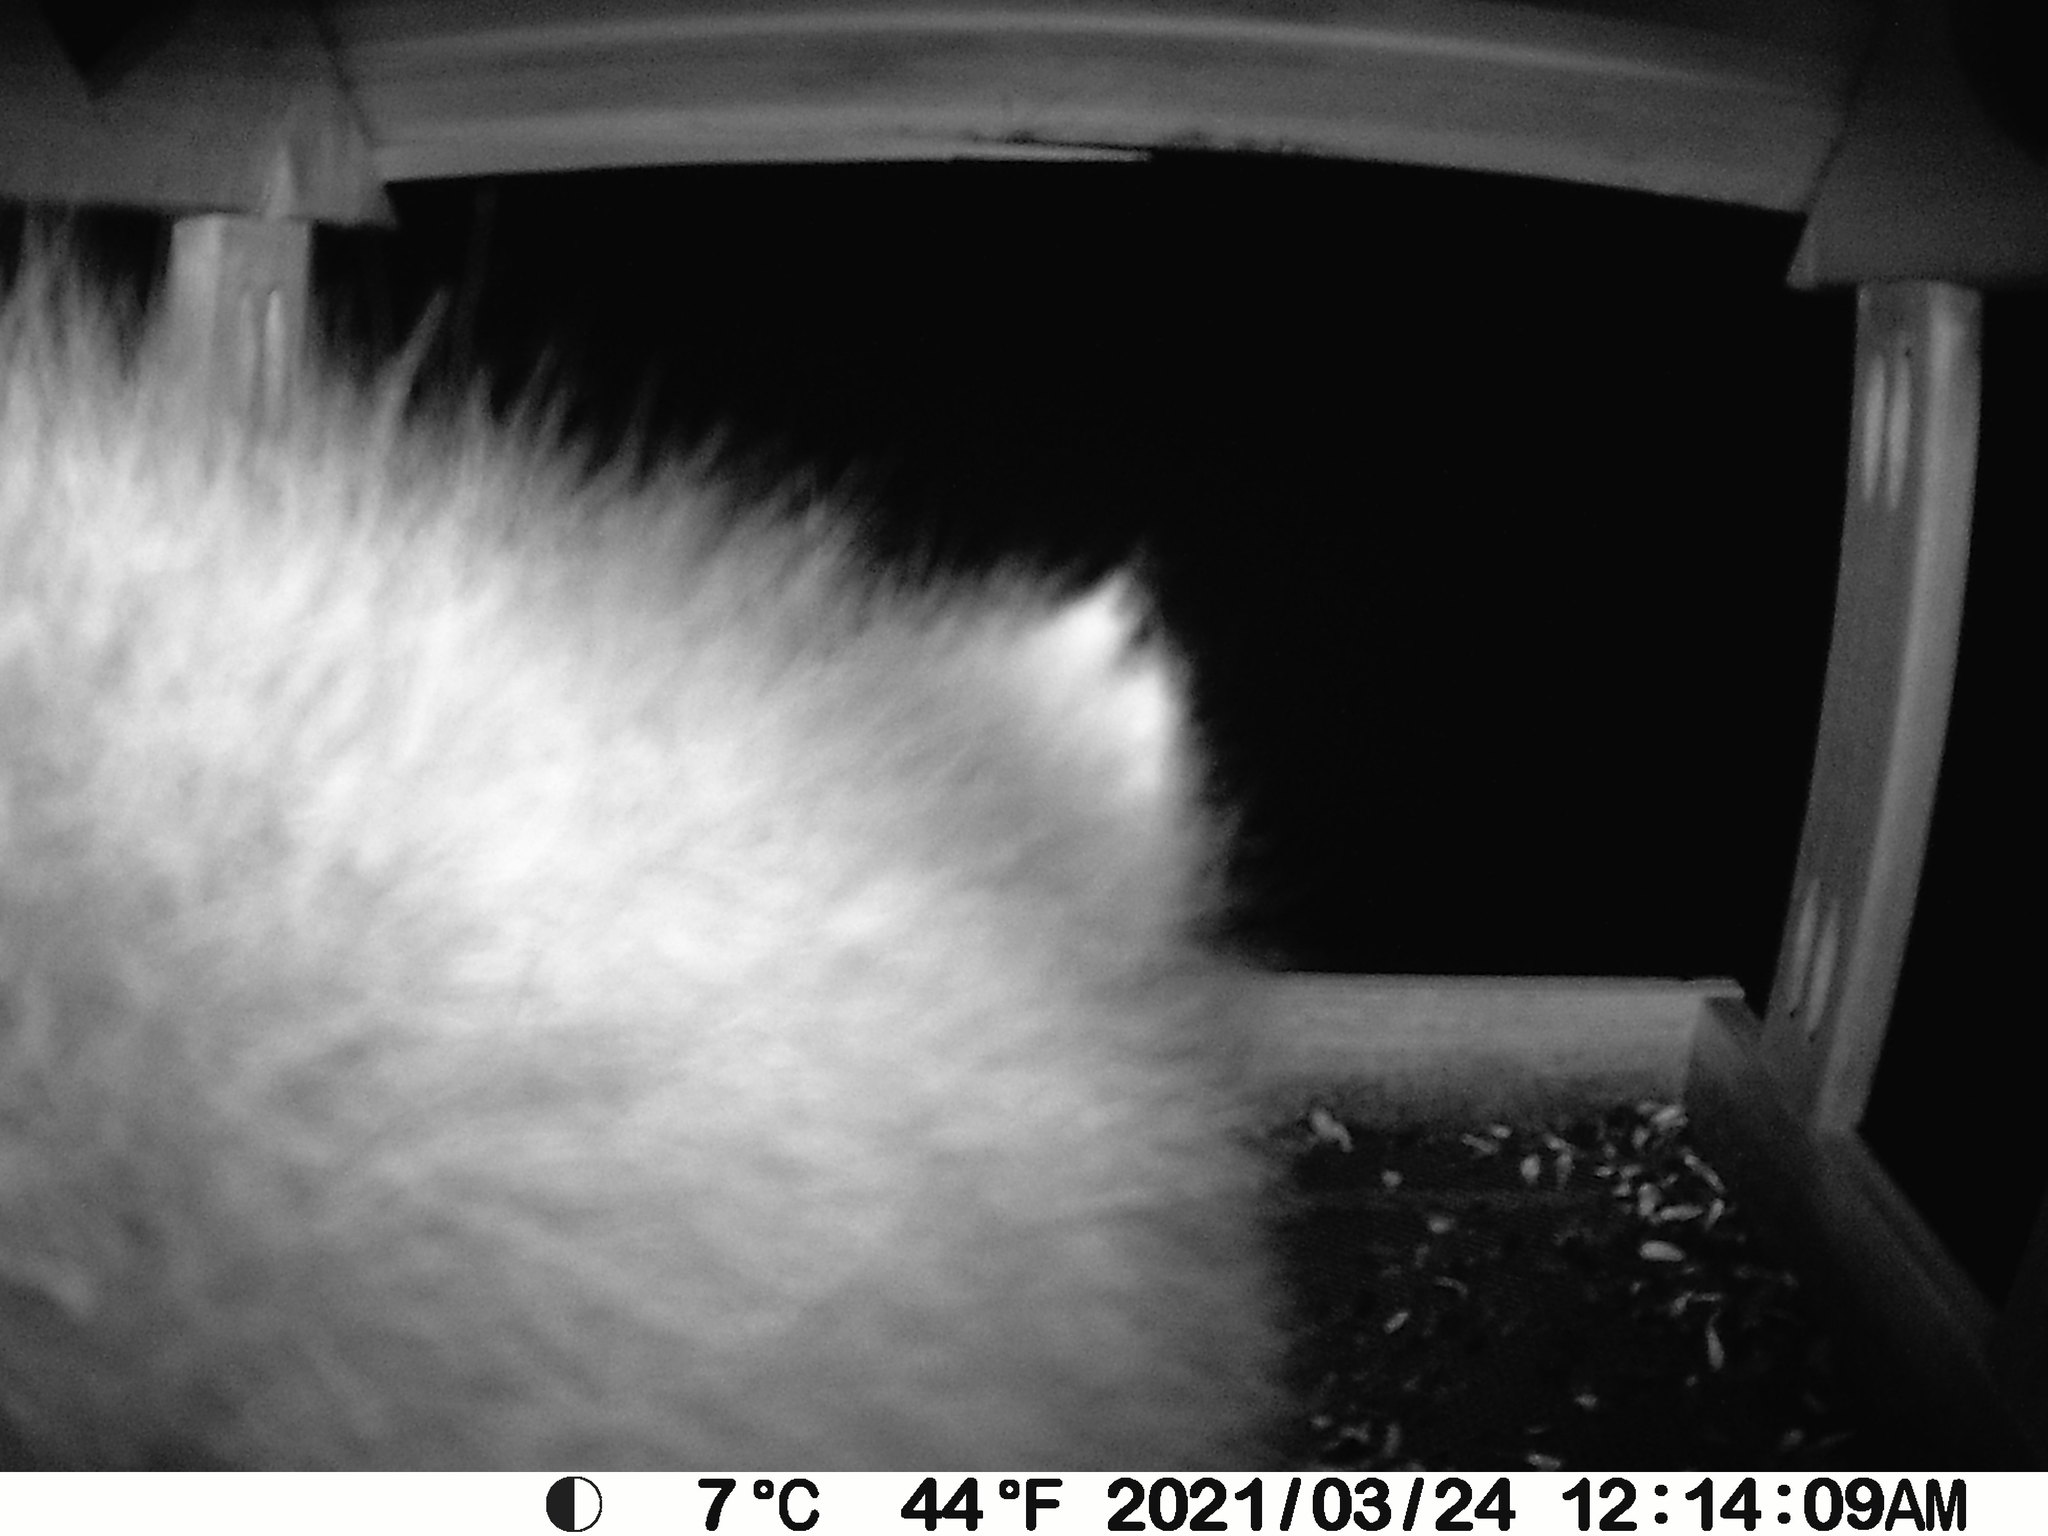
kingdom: Animalia
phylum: Chordata
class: Mammalia
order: Carnivora
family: Procyonidae
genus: Procyon
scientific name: Procyon lotor
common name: Raccoon
